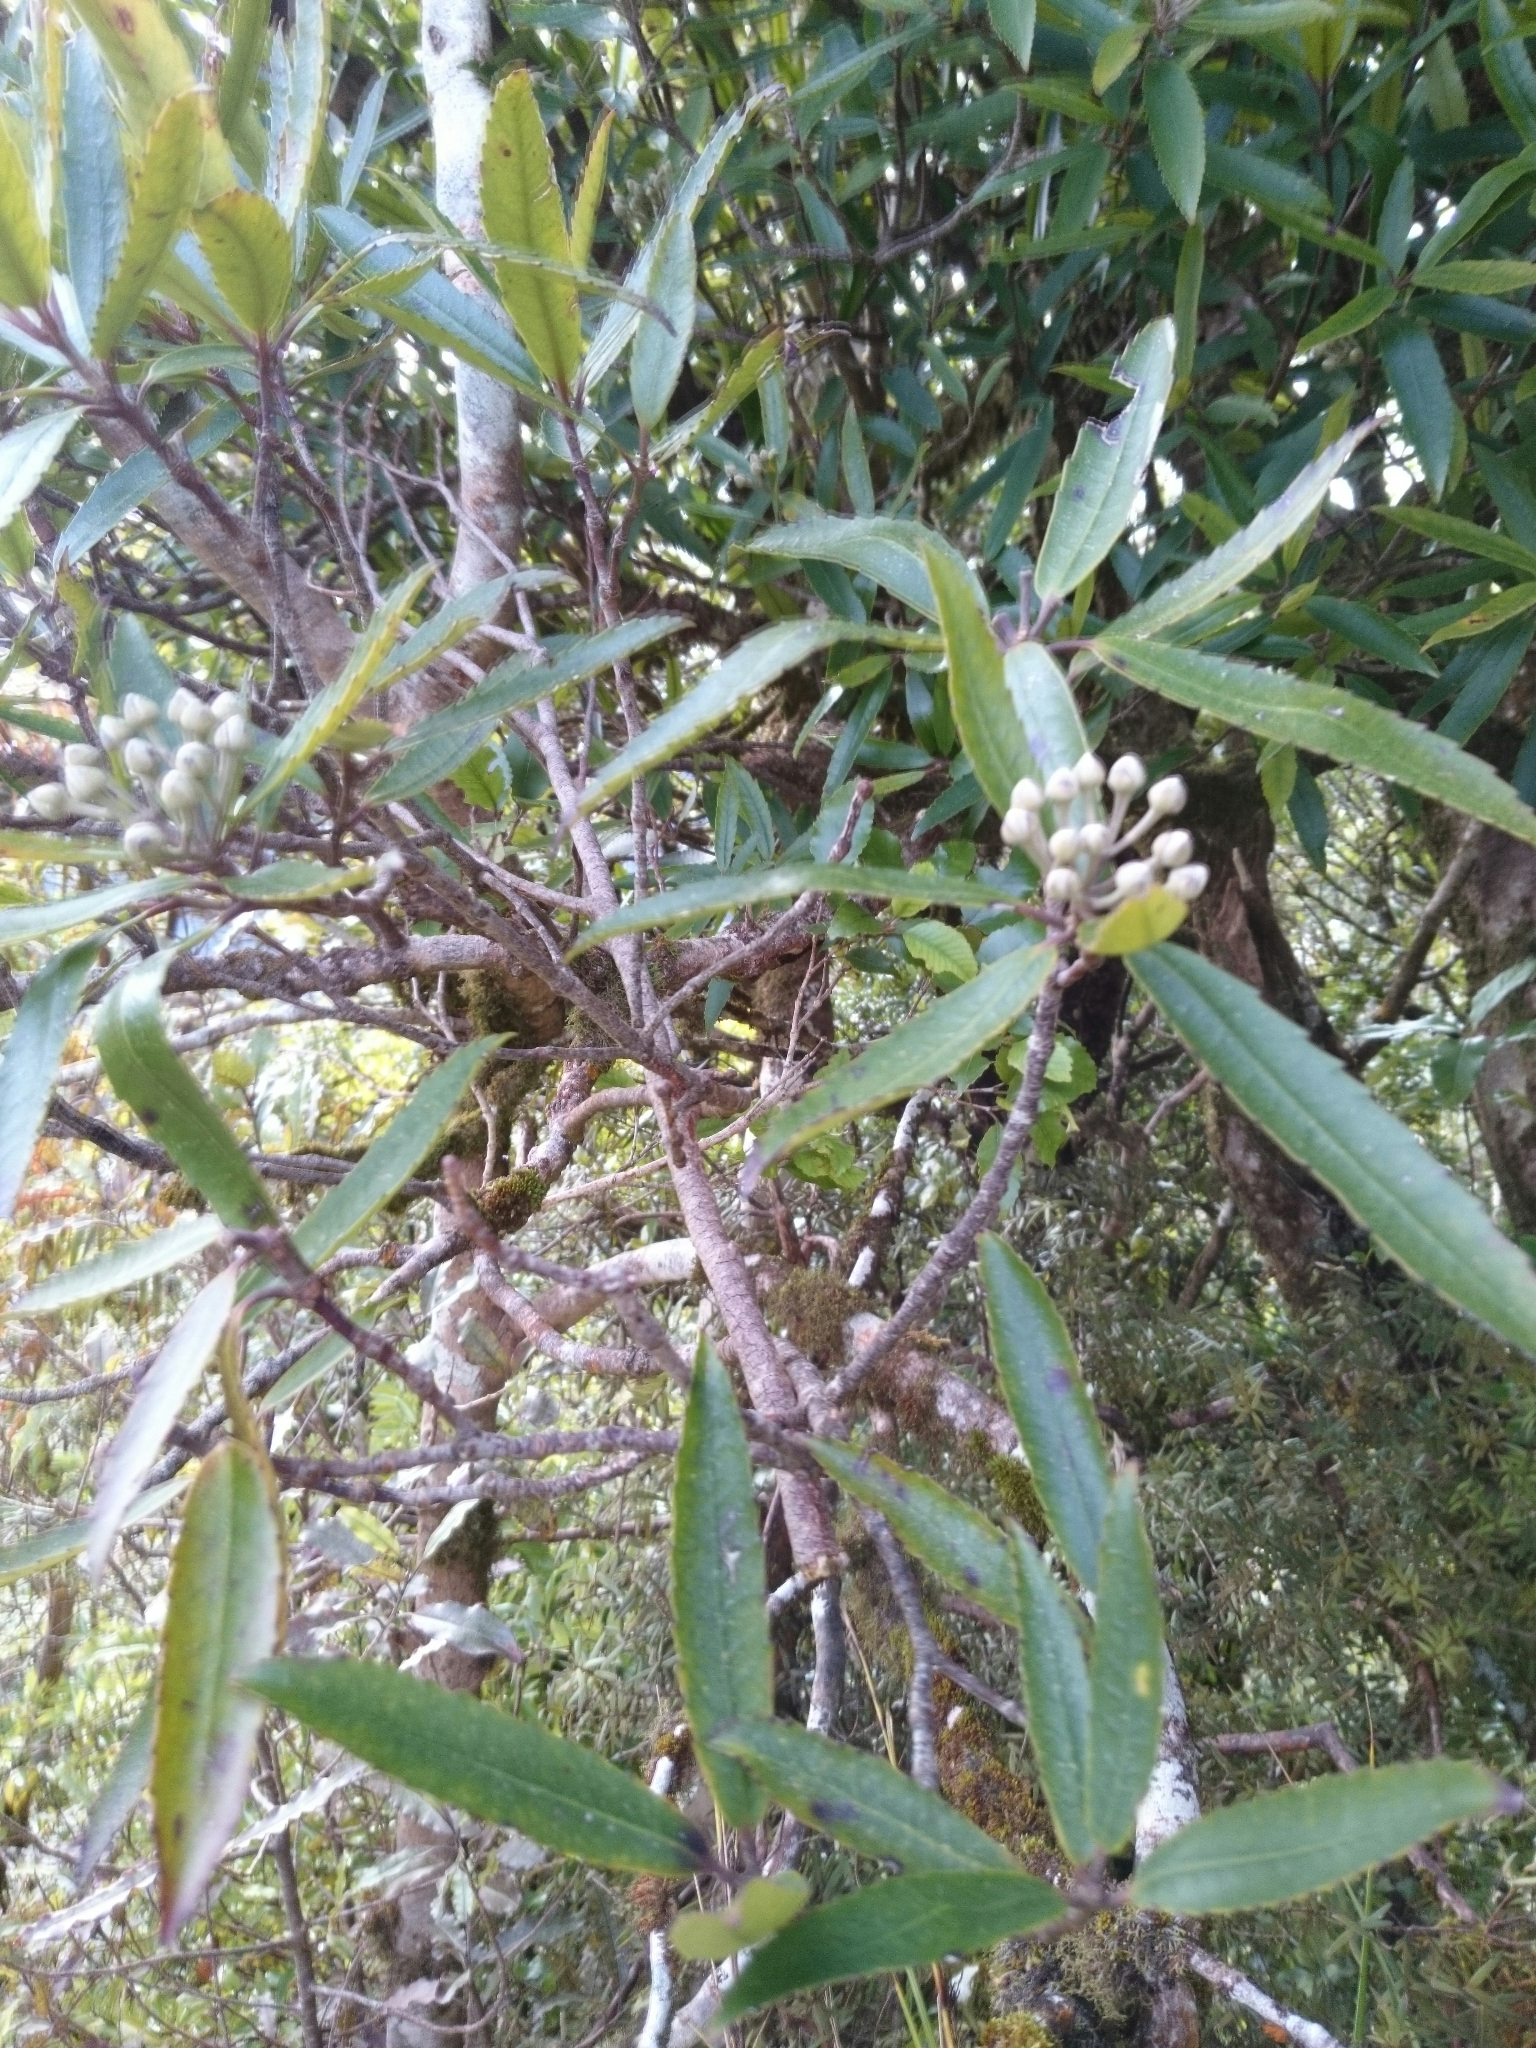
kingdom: Plantae
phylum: Tracheophyta
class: Magnoliopsida
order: Crossosomatales
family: Ixerbaceae
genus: Ixerba
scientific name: Ixerba brexioides
